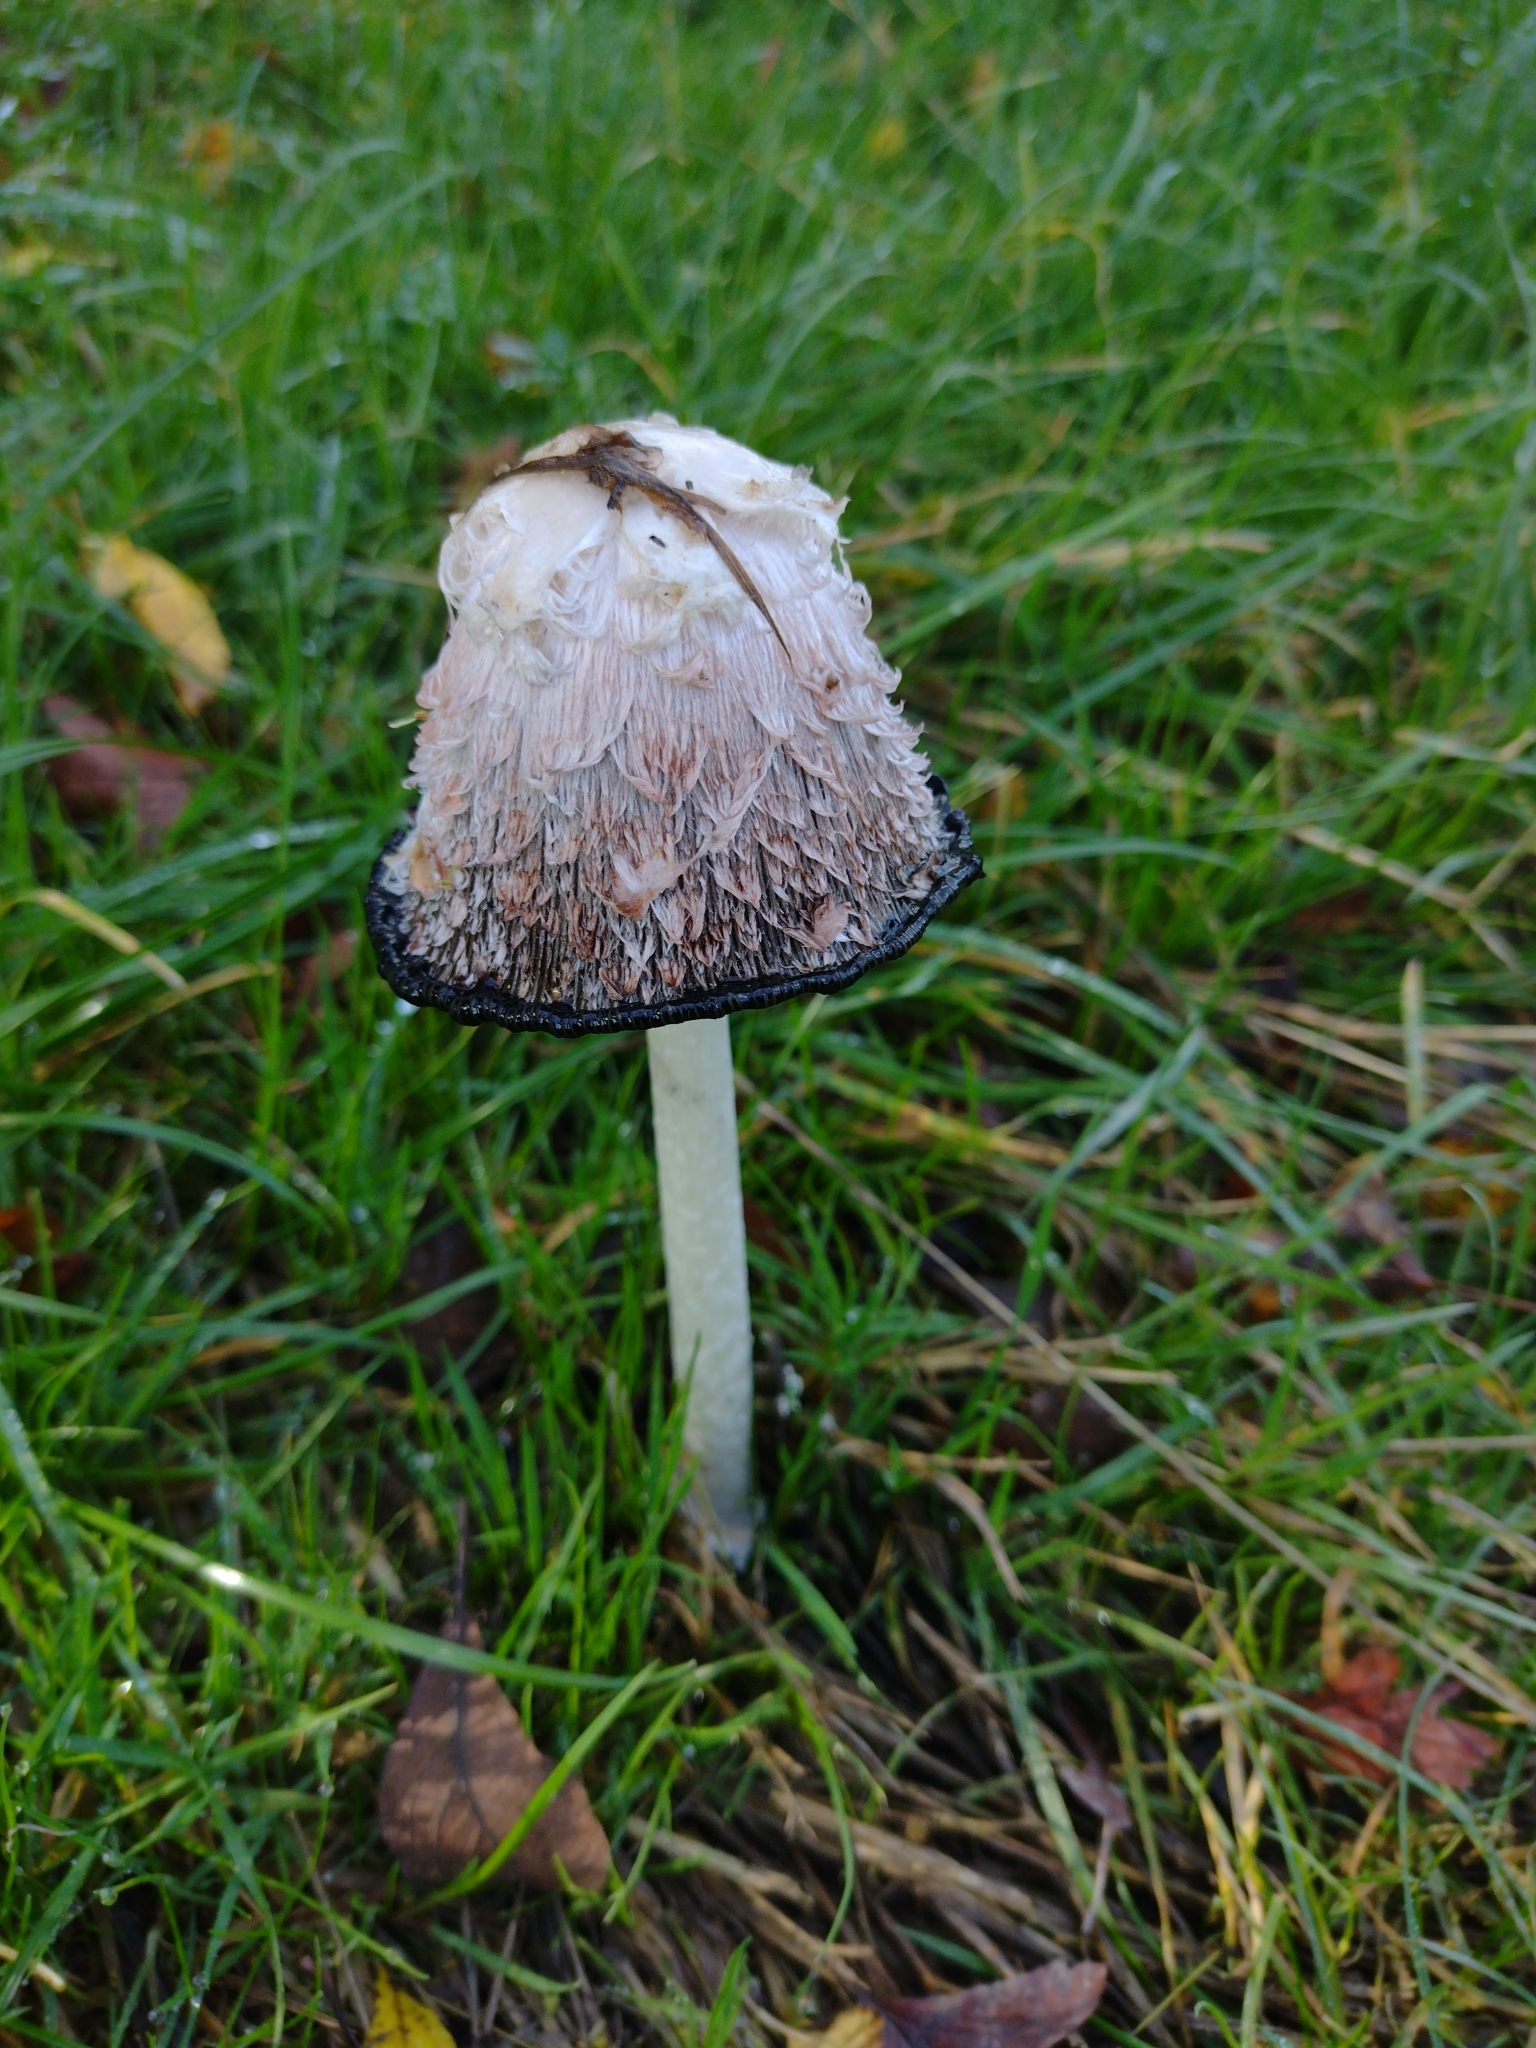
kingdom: Fungi
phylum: Basidiomycota
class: Agaricomycetes
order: Agaricales
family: Agaricaceae
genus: Coprinus
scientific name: Coprinus comatus
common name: Lawyer's wig
